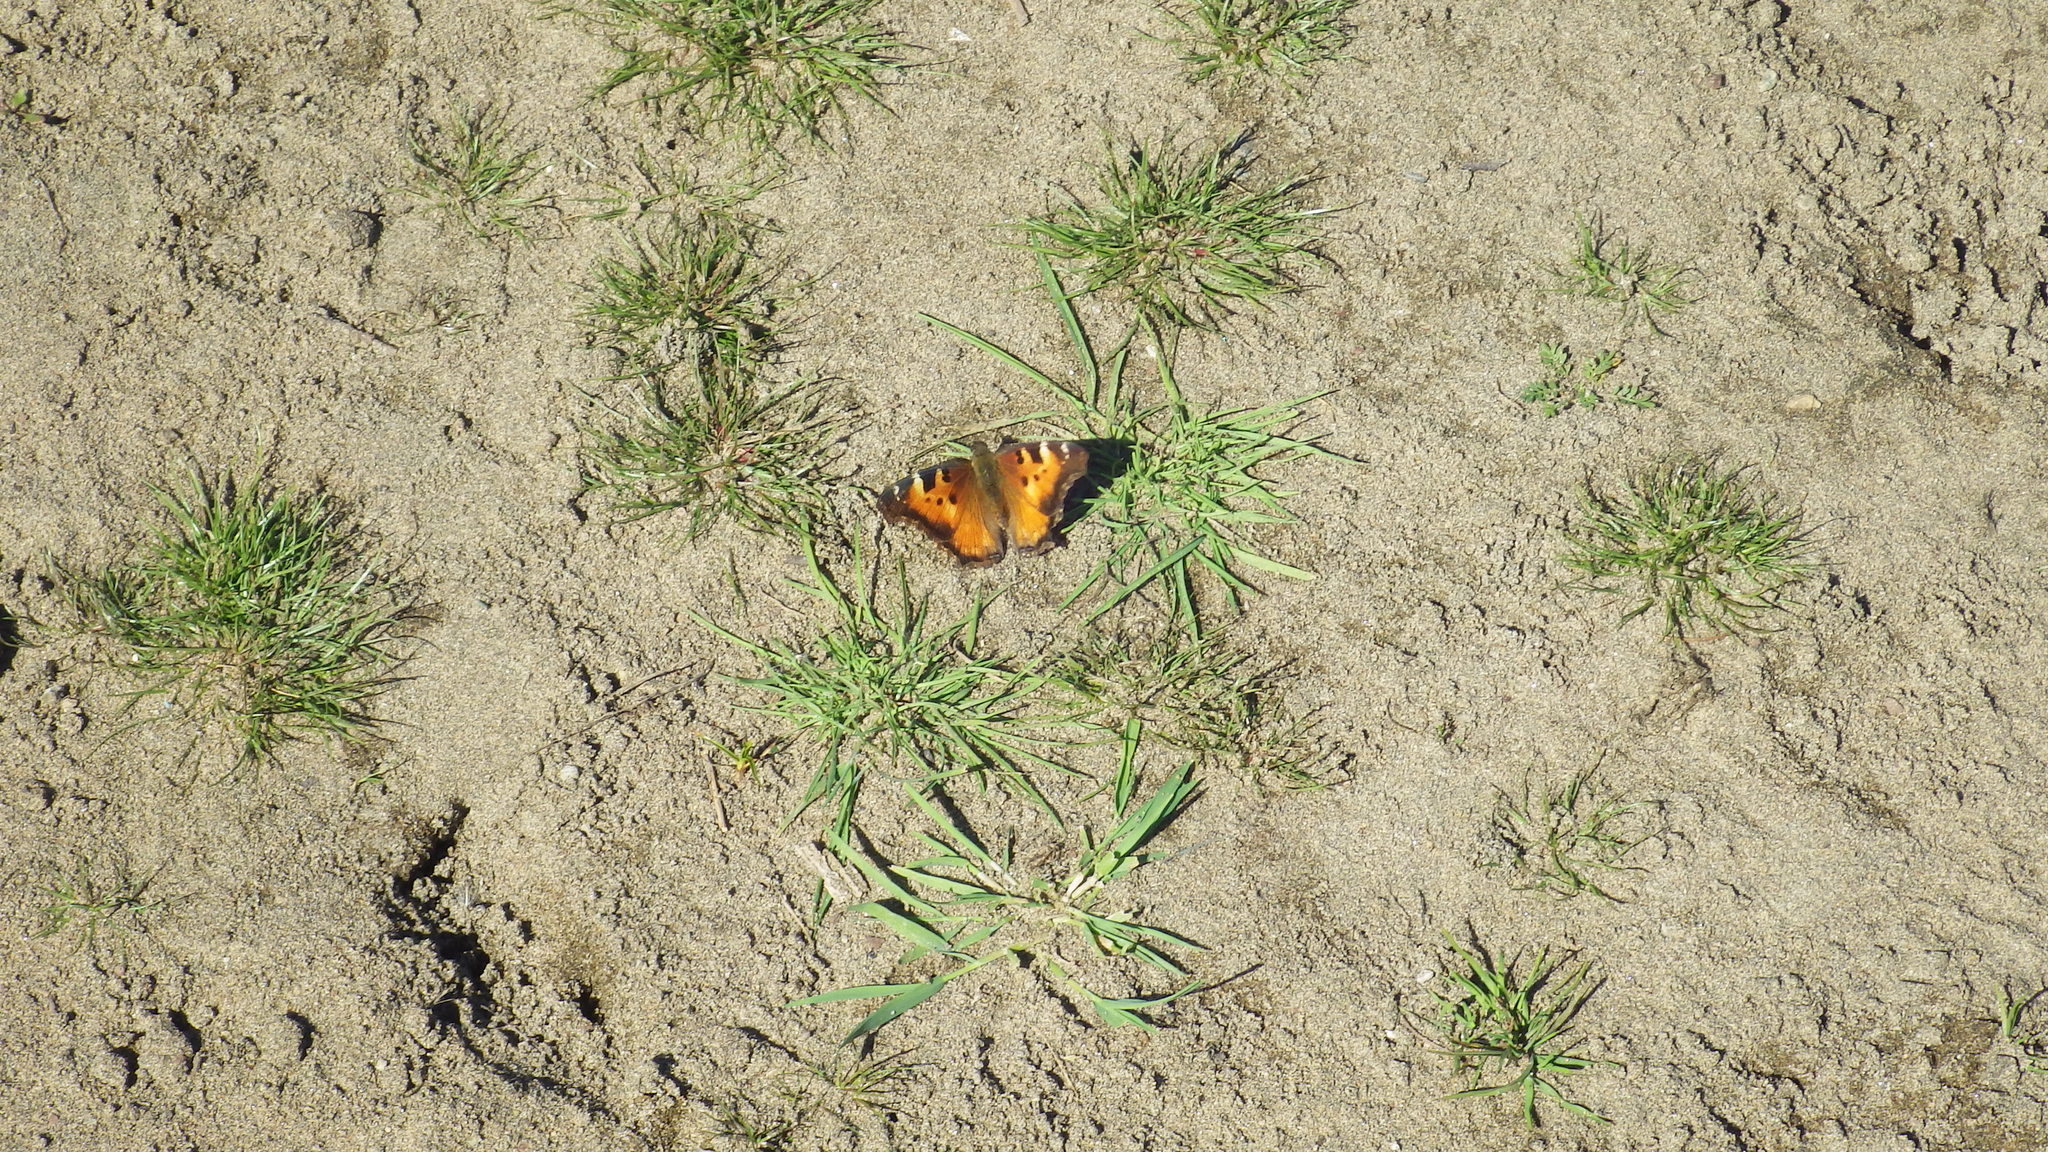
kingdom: Animalia
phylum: Arthropoda
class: Insecta
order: Lepidoptera
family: Nymphalidae
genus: Nymphalis
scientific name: Nymphalis californica
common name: California tortoiseshell
